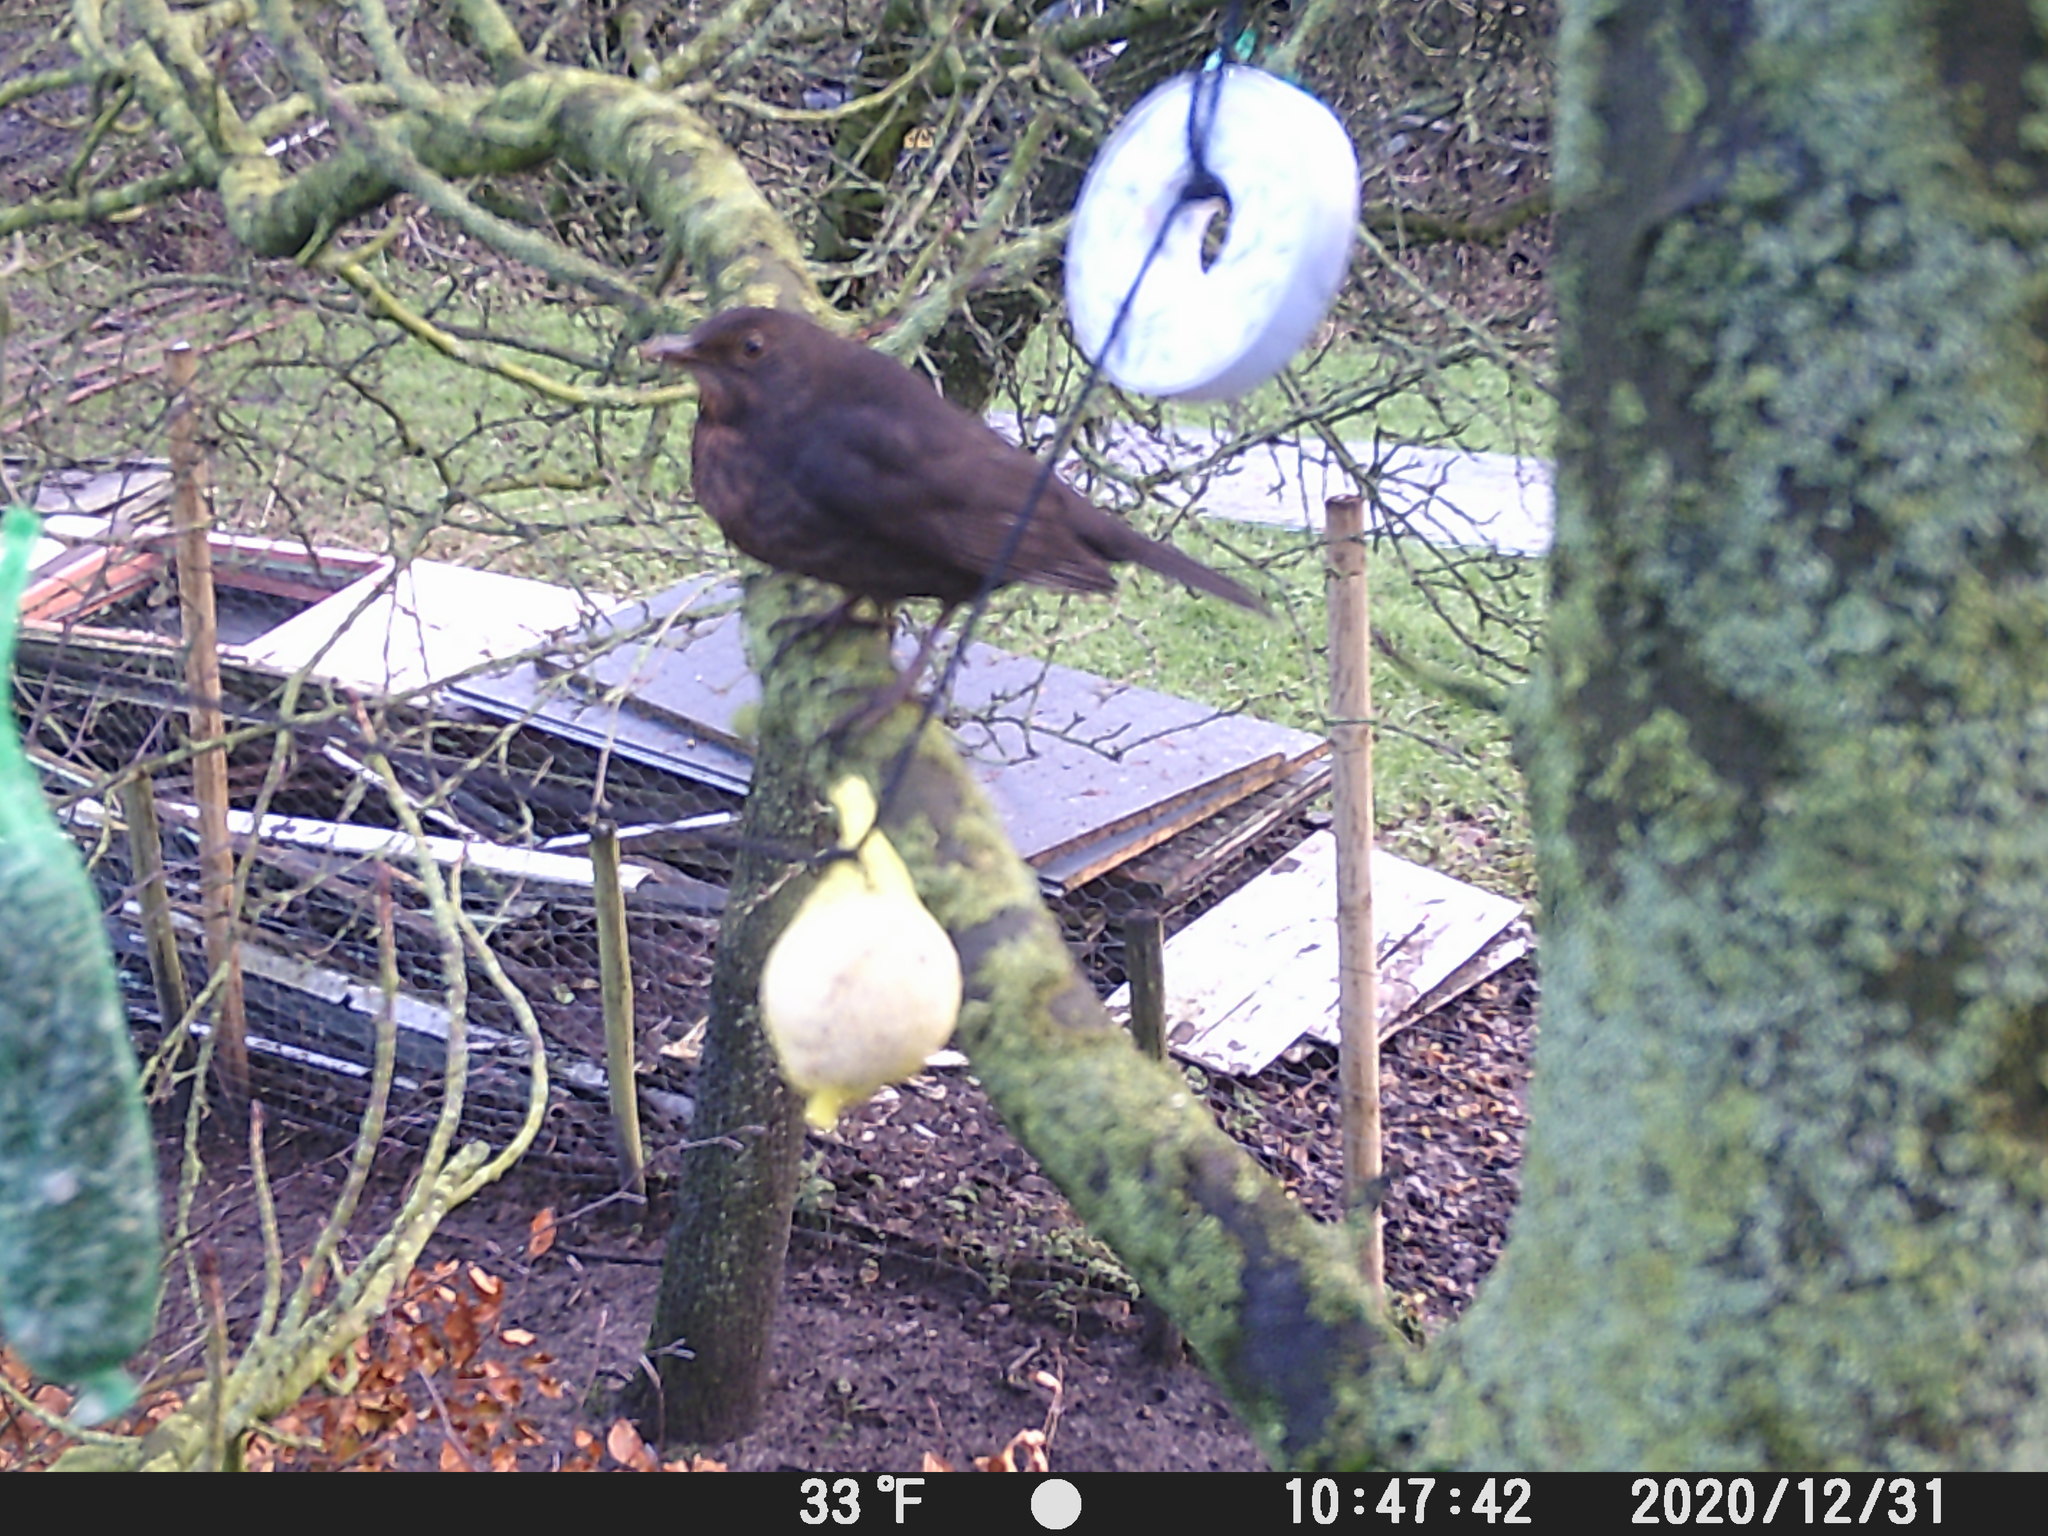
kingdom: Animalia
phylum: Chordata
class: Aves
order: Passeriformes
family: Turdidae
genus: Turdus
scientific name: Turdus merula
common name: Common blackbird
